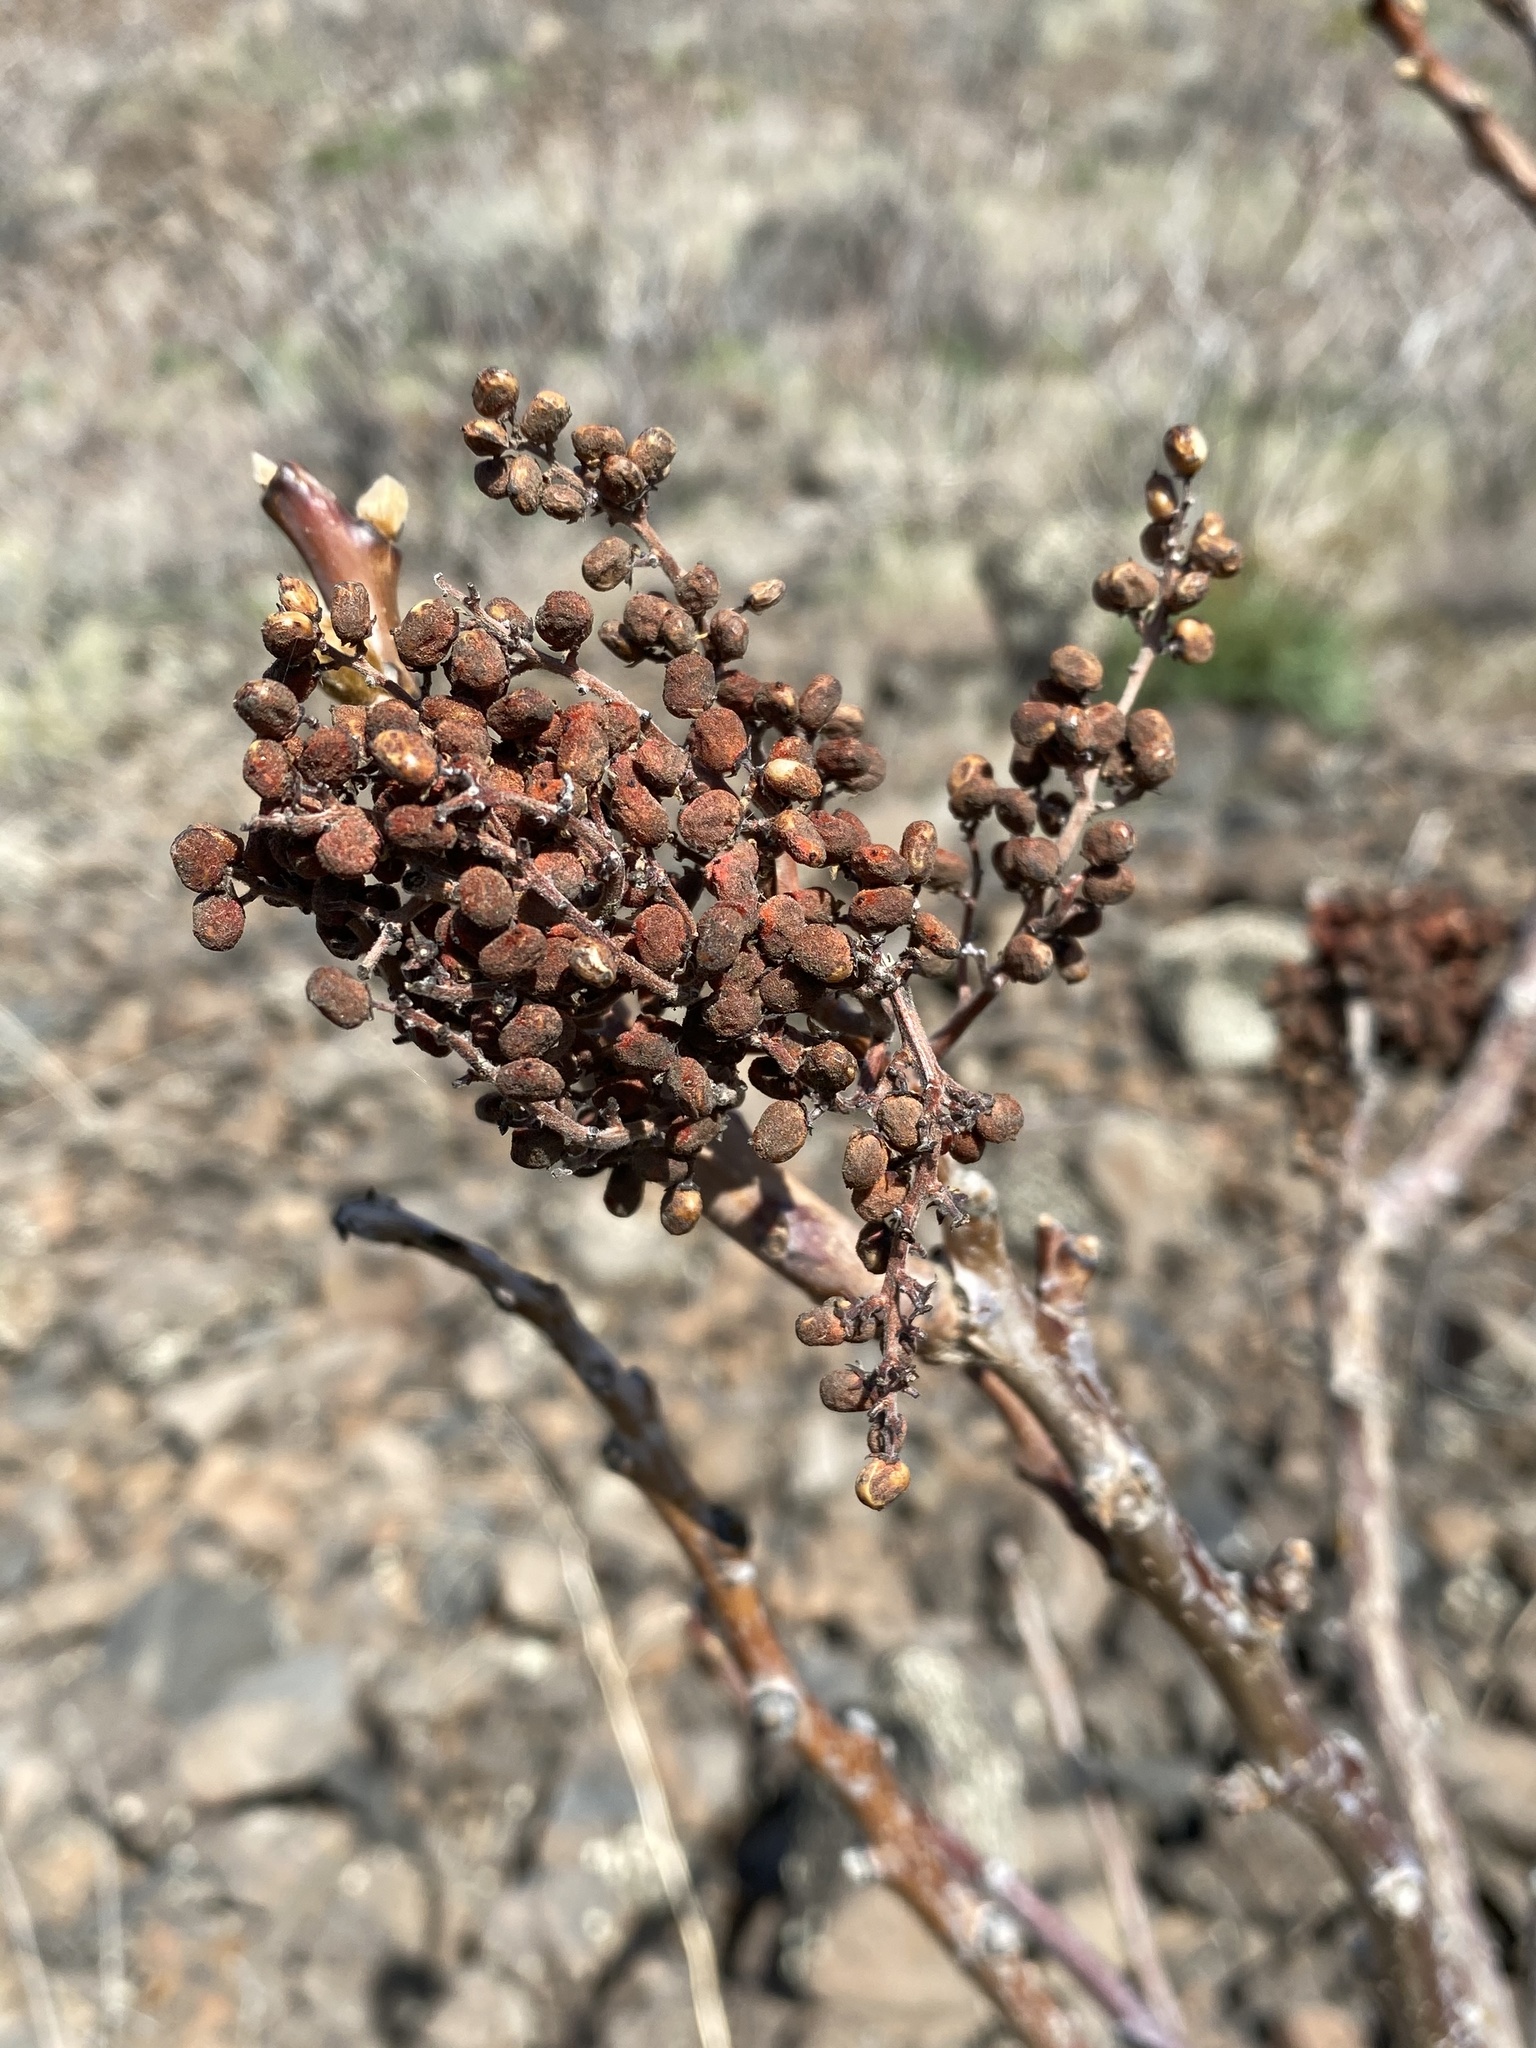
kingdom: Plantae
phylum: Tracheophyta
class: Magnoliopsida
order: Sapindales
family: Anacardiaceae
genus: Rhus
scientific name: Rhus glabra
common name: Scarlet sumac
